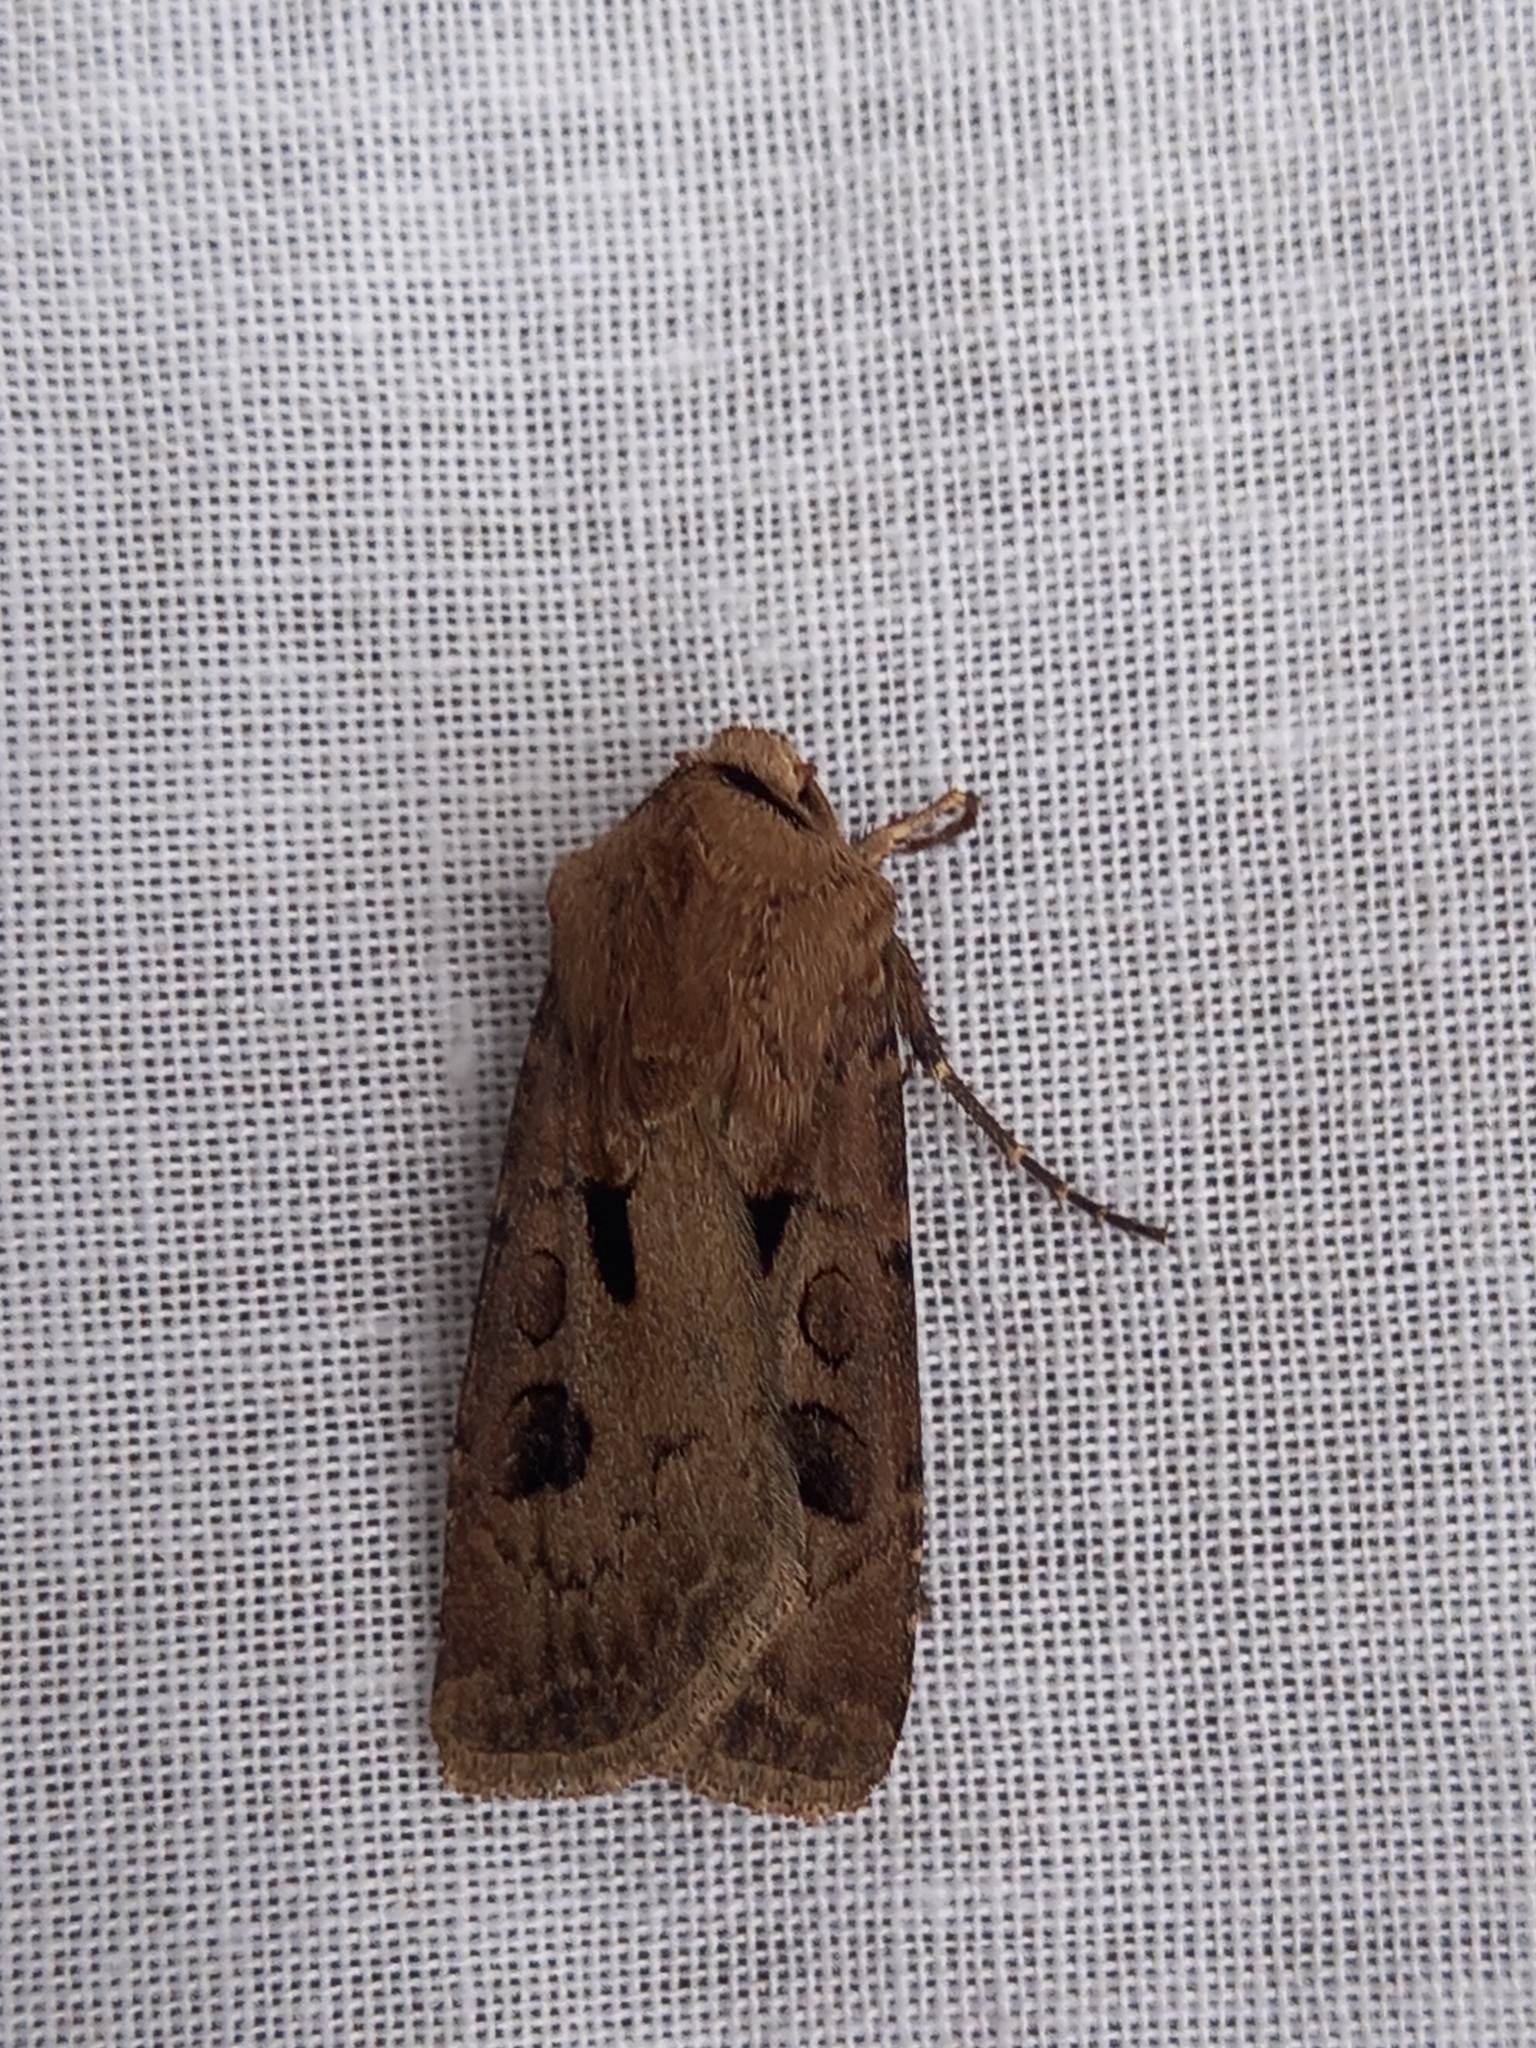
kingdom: Animalia
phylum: Arthropoda
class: Insecta
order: Lepidoptera
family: Noctuidae
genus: Agrotis
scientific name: Agrotis exclamationis
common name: Heart and dart
